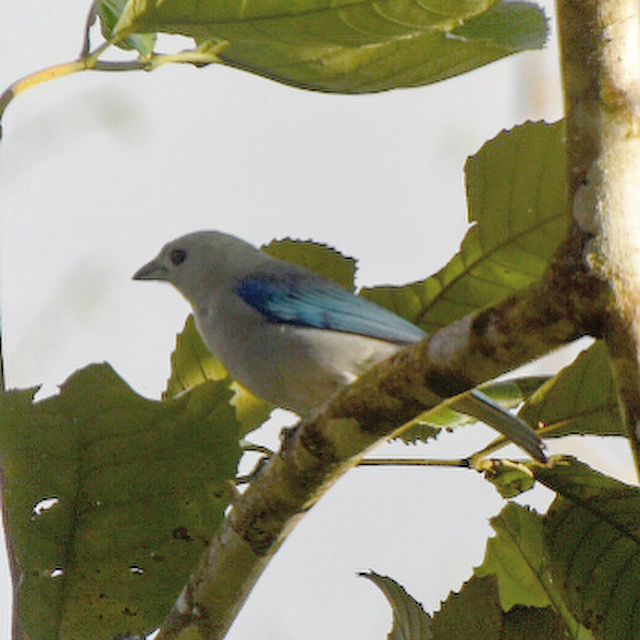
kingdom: Animalia
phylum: Chordata
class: Aves
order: Passeriformes
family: Thraupidae
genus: Thraupis
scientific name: Thraupis episcopus
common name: Blue-grey tanager
